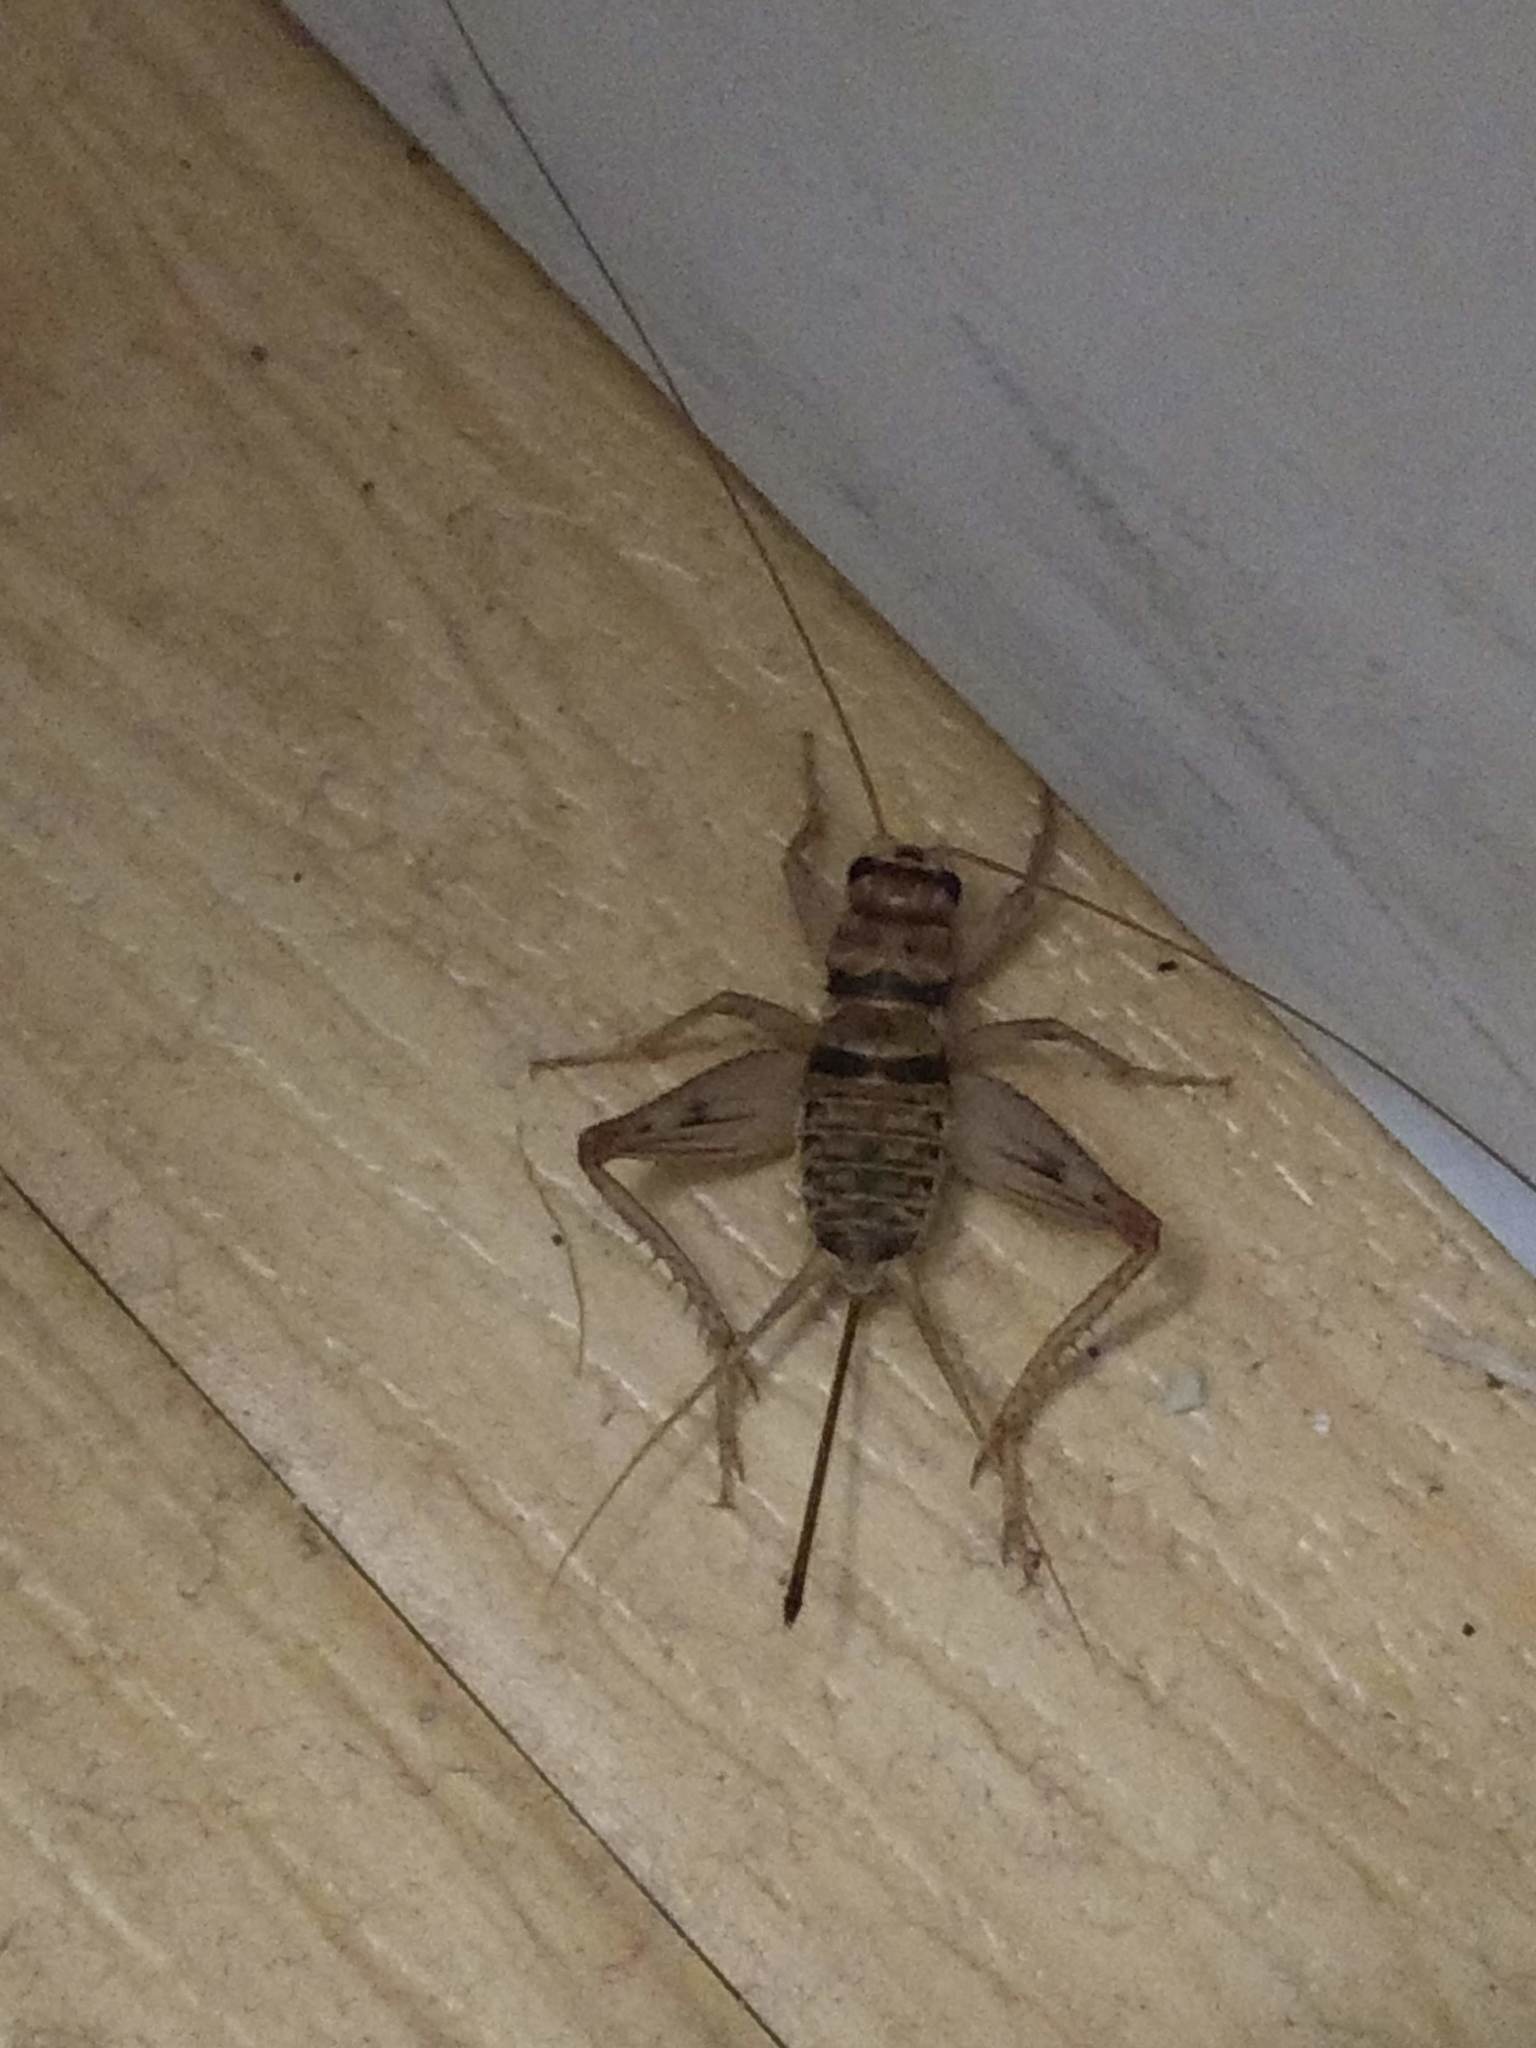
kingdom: Animalia
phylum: Arthropoda
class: Insecta
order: Orthoptera
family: Gryllidae
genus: Gryllodes
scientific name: Gryllodes sigillatus
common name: Tropical house cricket
